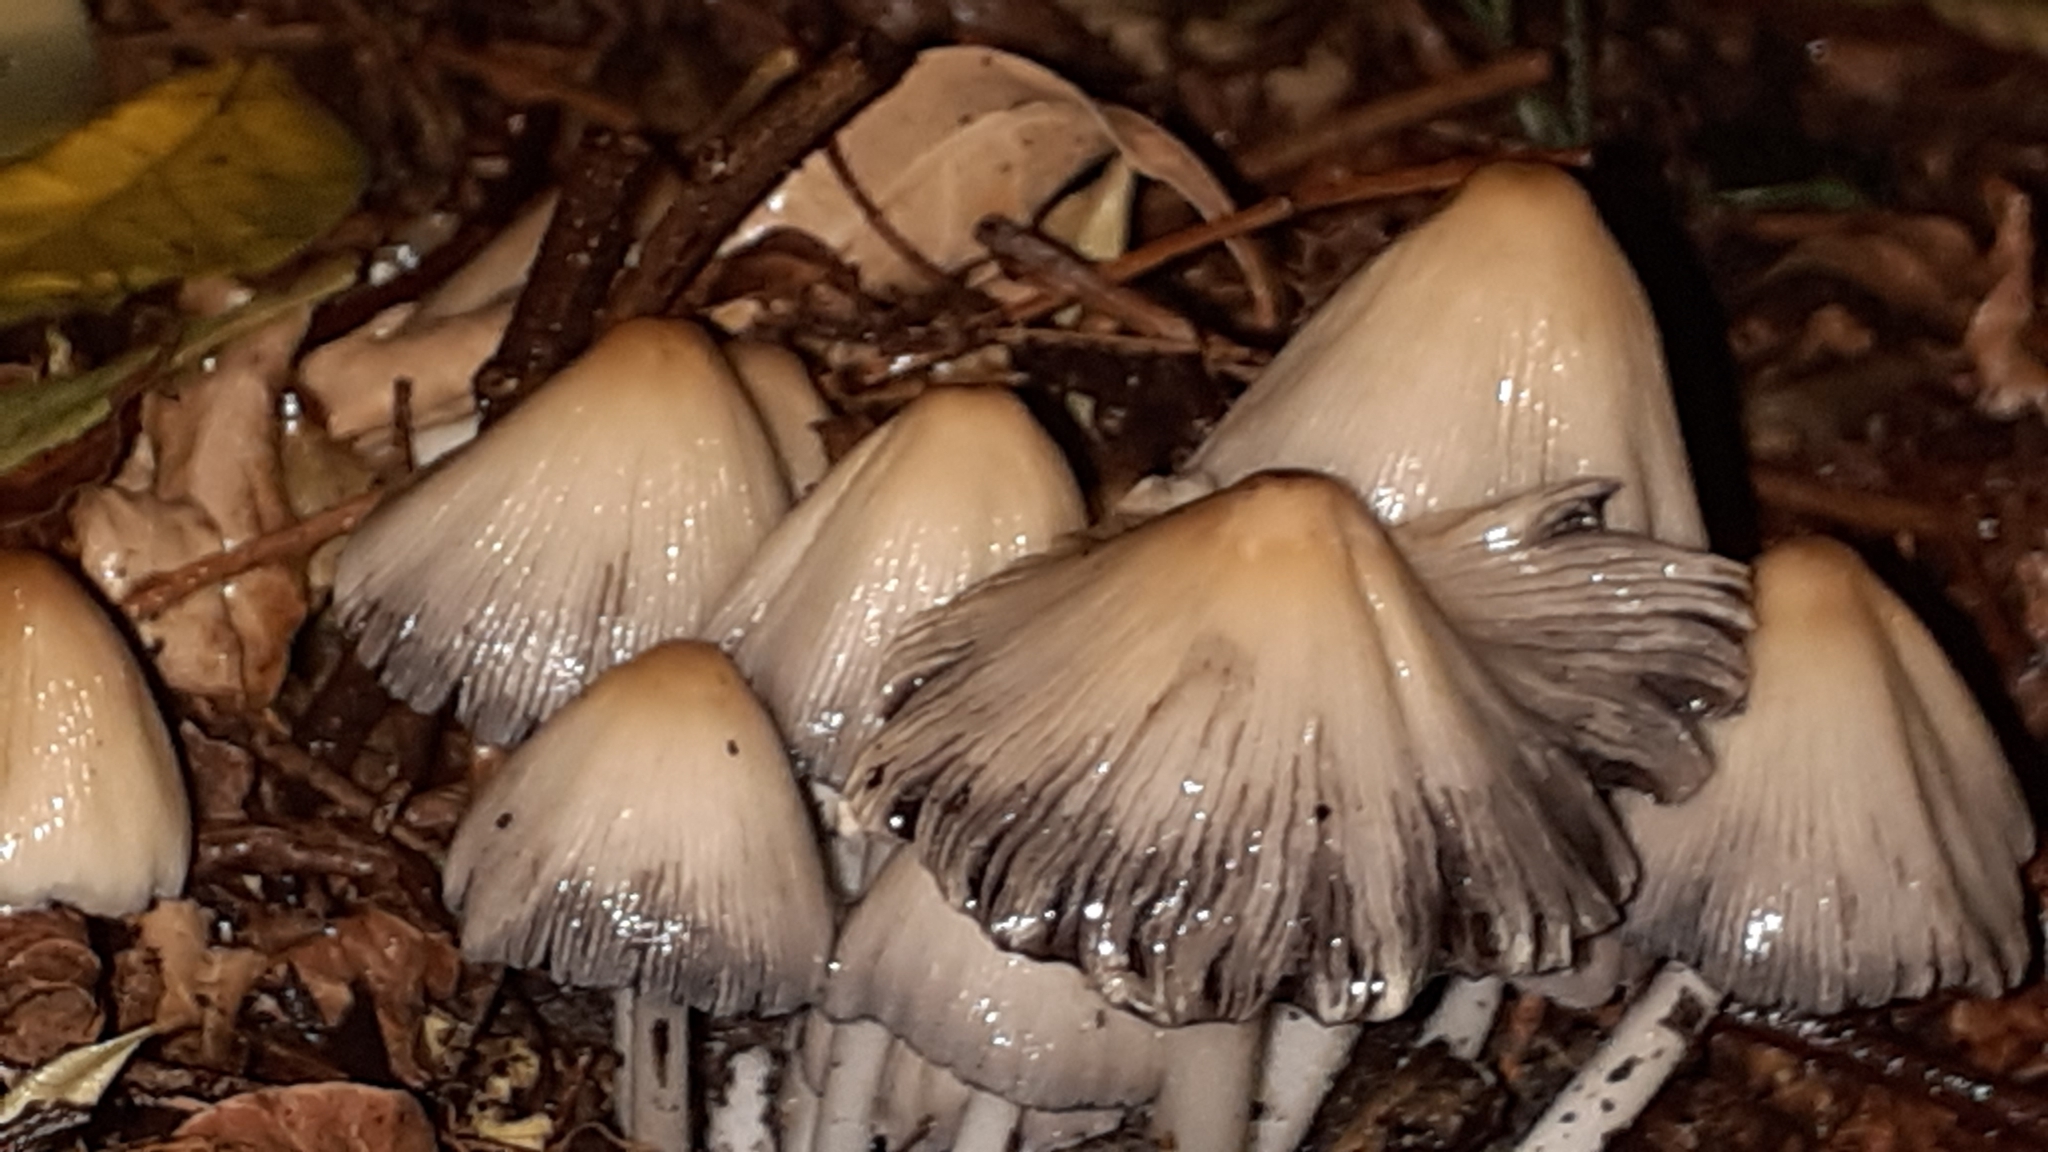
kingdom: Fungi
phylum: Basidiomycota
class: Agaricomycetes
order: Agaricales
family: Psathyrellaceae
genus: Coprinopsis
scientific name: Coprinopsis atramentaria
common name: Common ink-cap
